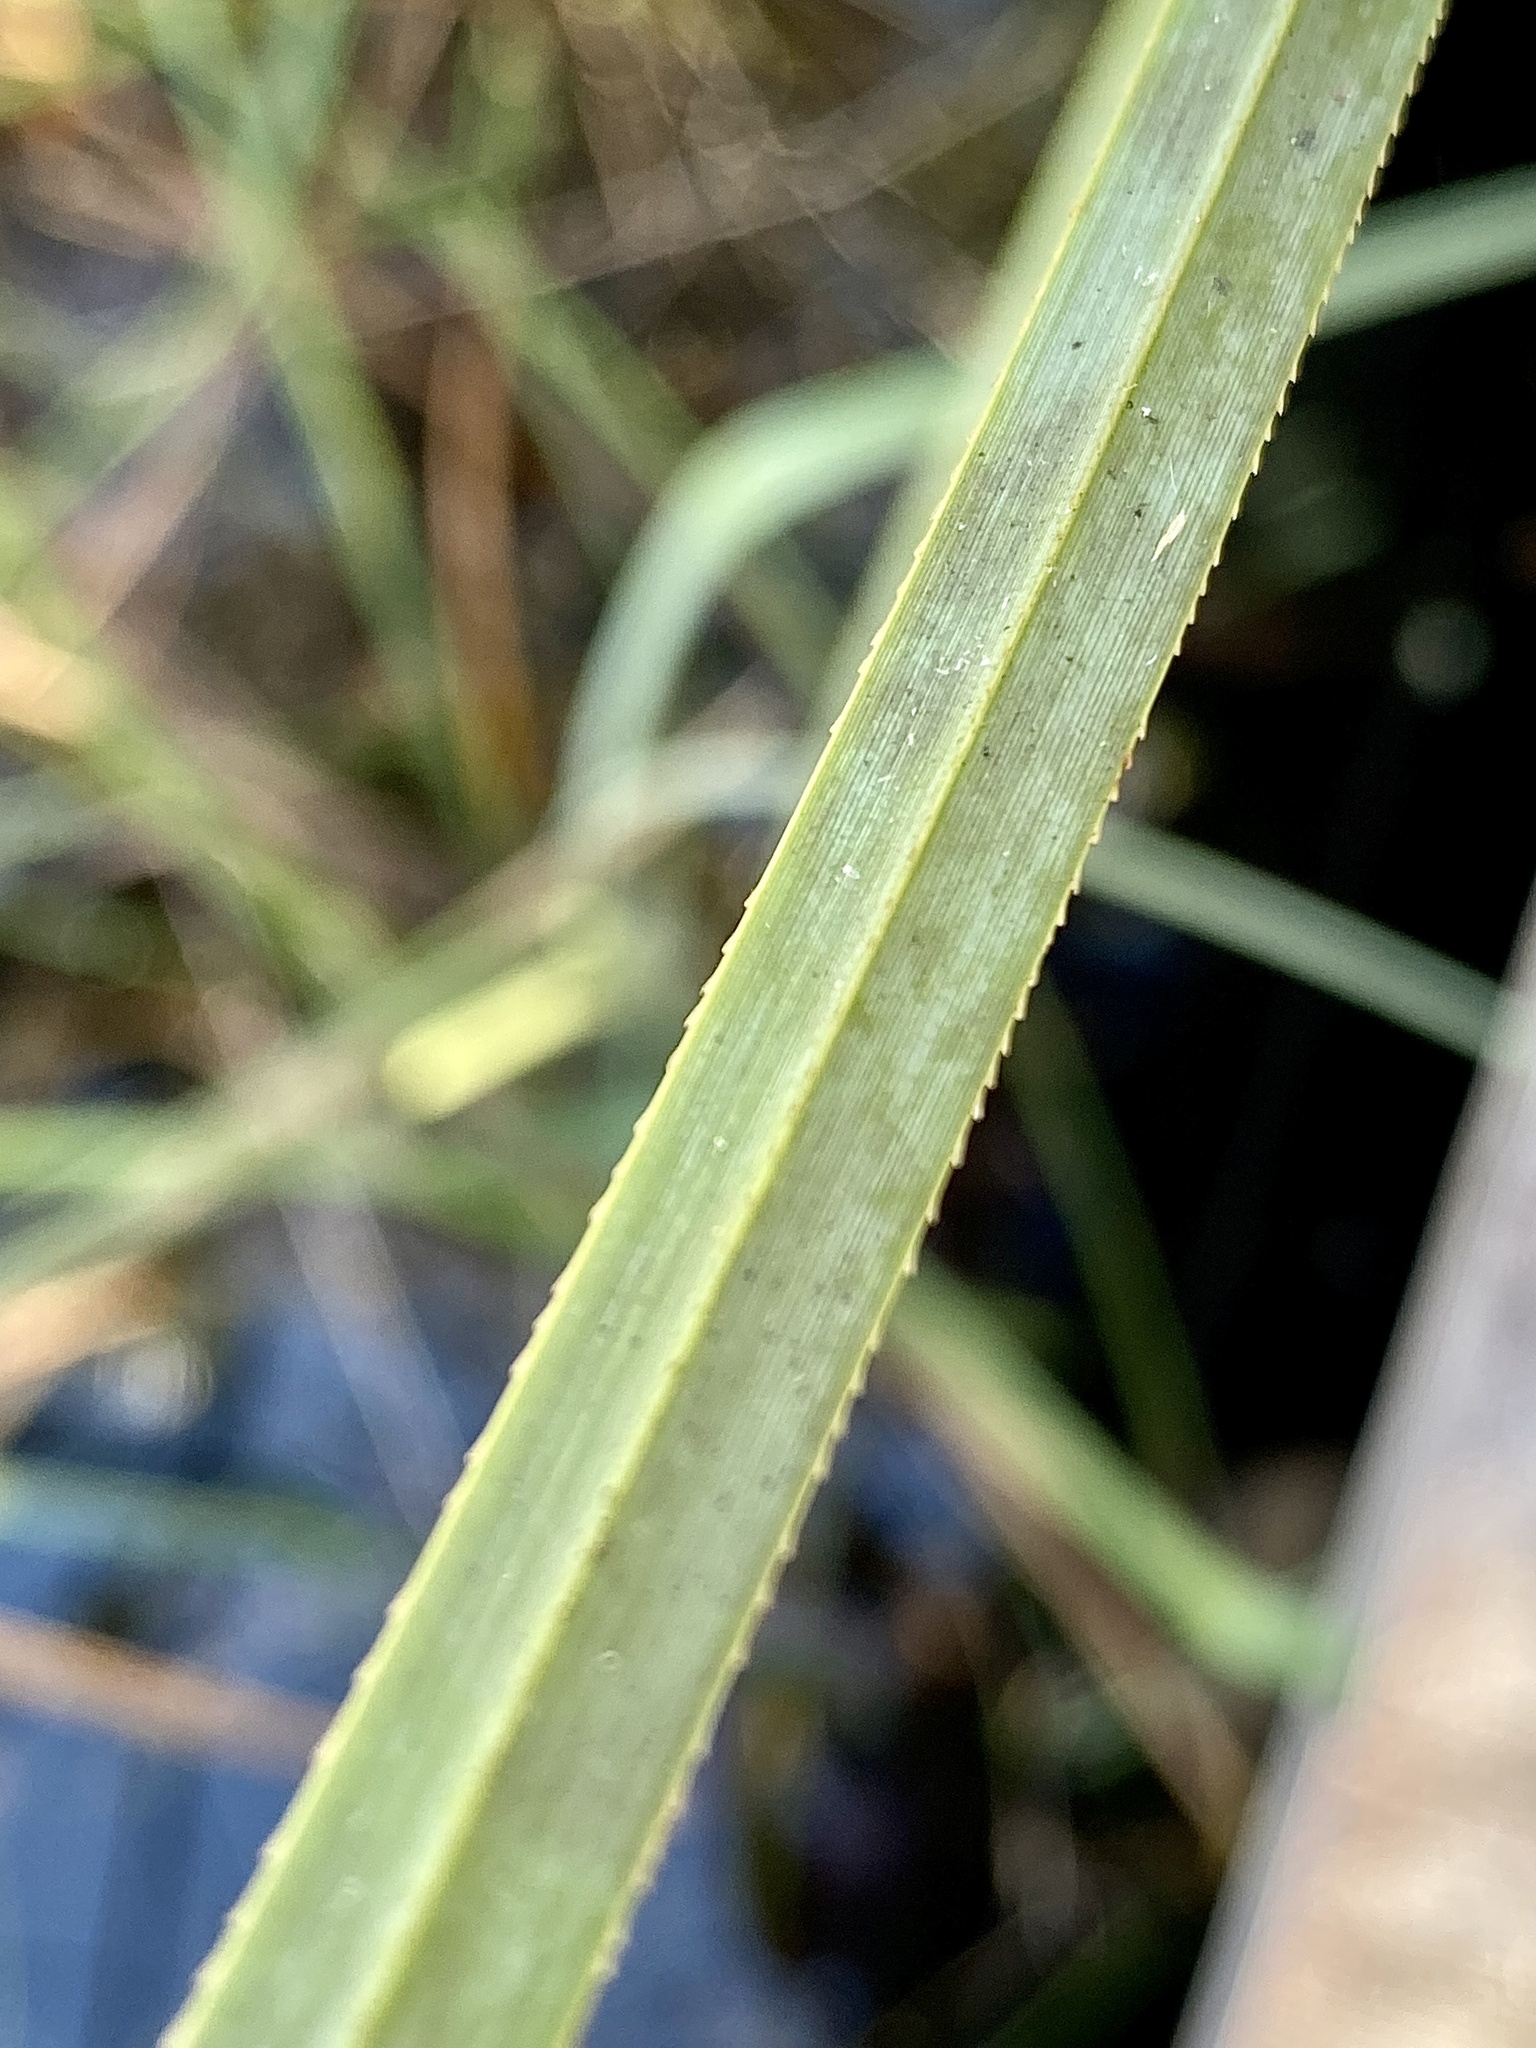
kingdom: Plantae
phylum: Tracheophyta
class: Liliopsida
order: Poales
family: Cyperaceae
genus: Cladium
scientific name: Cladium mariscus
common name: Great fen-sedge
